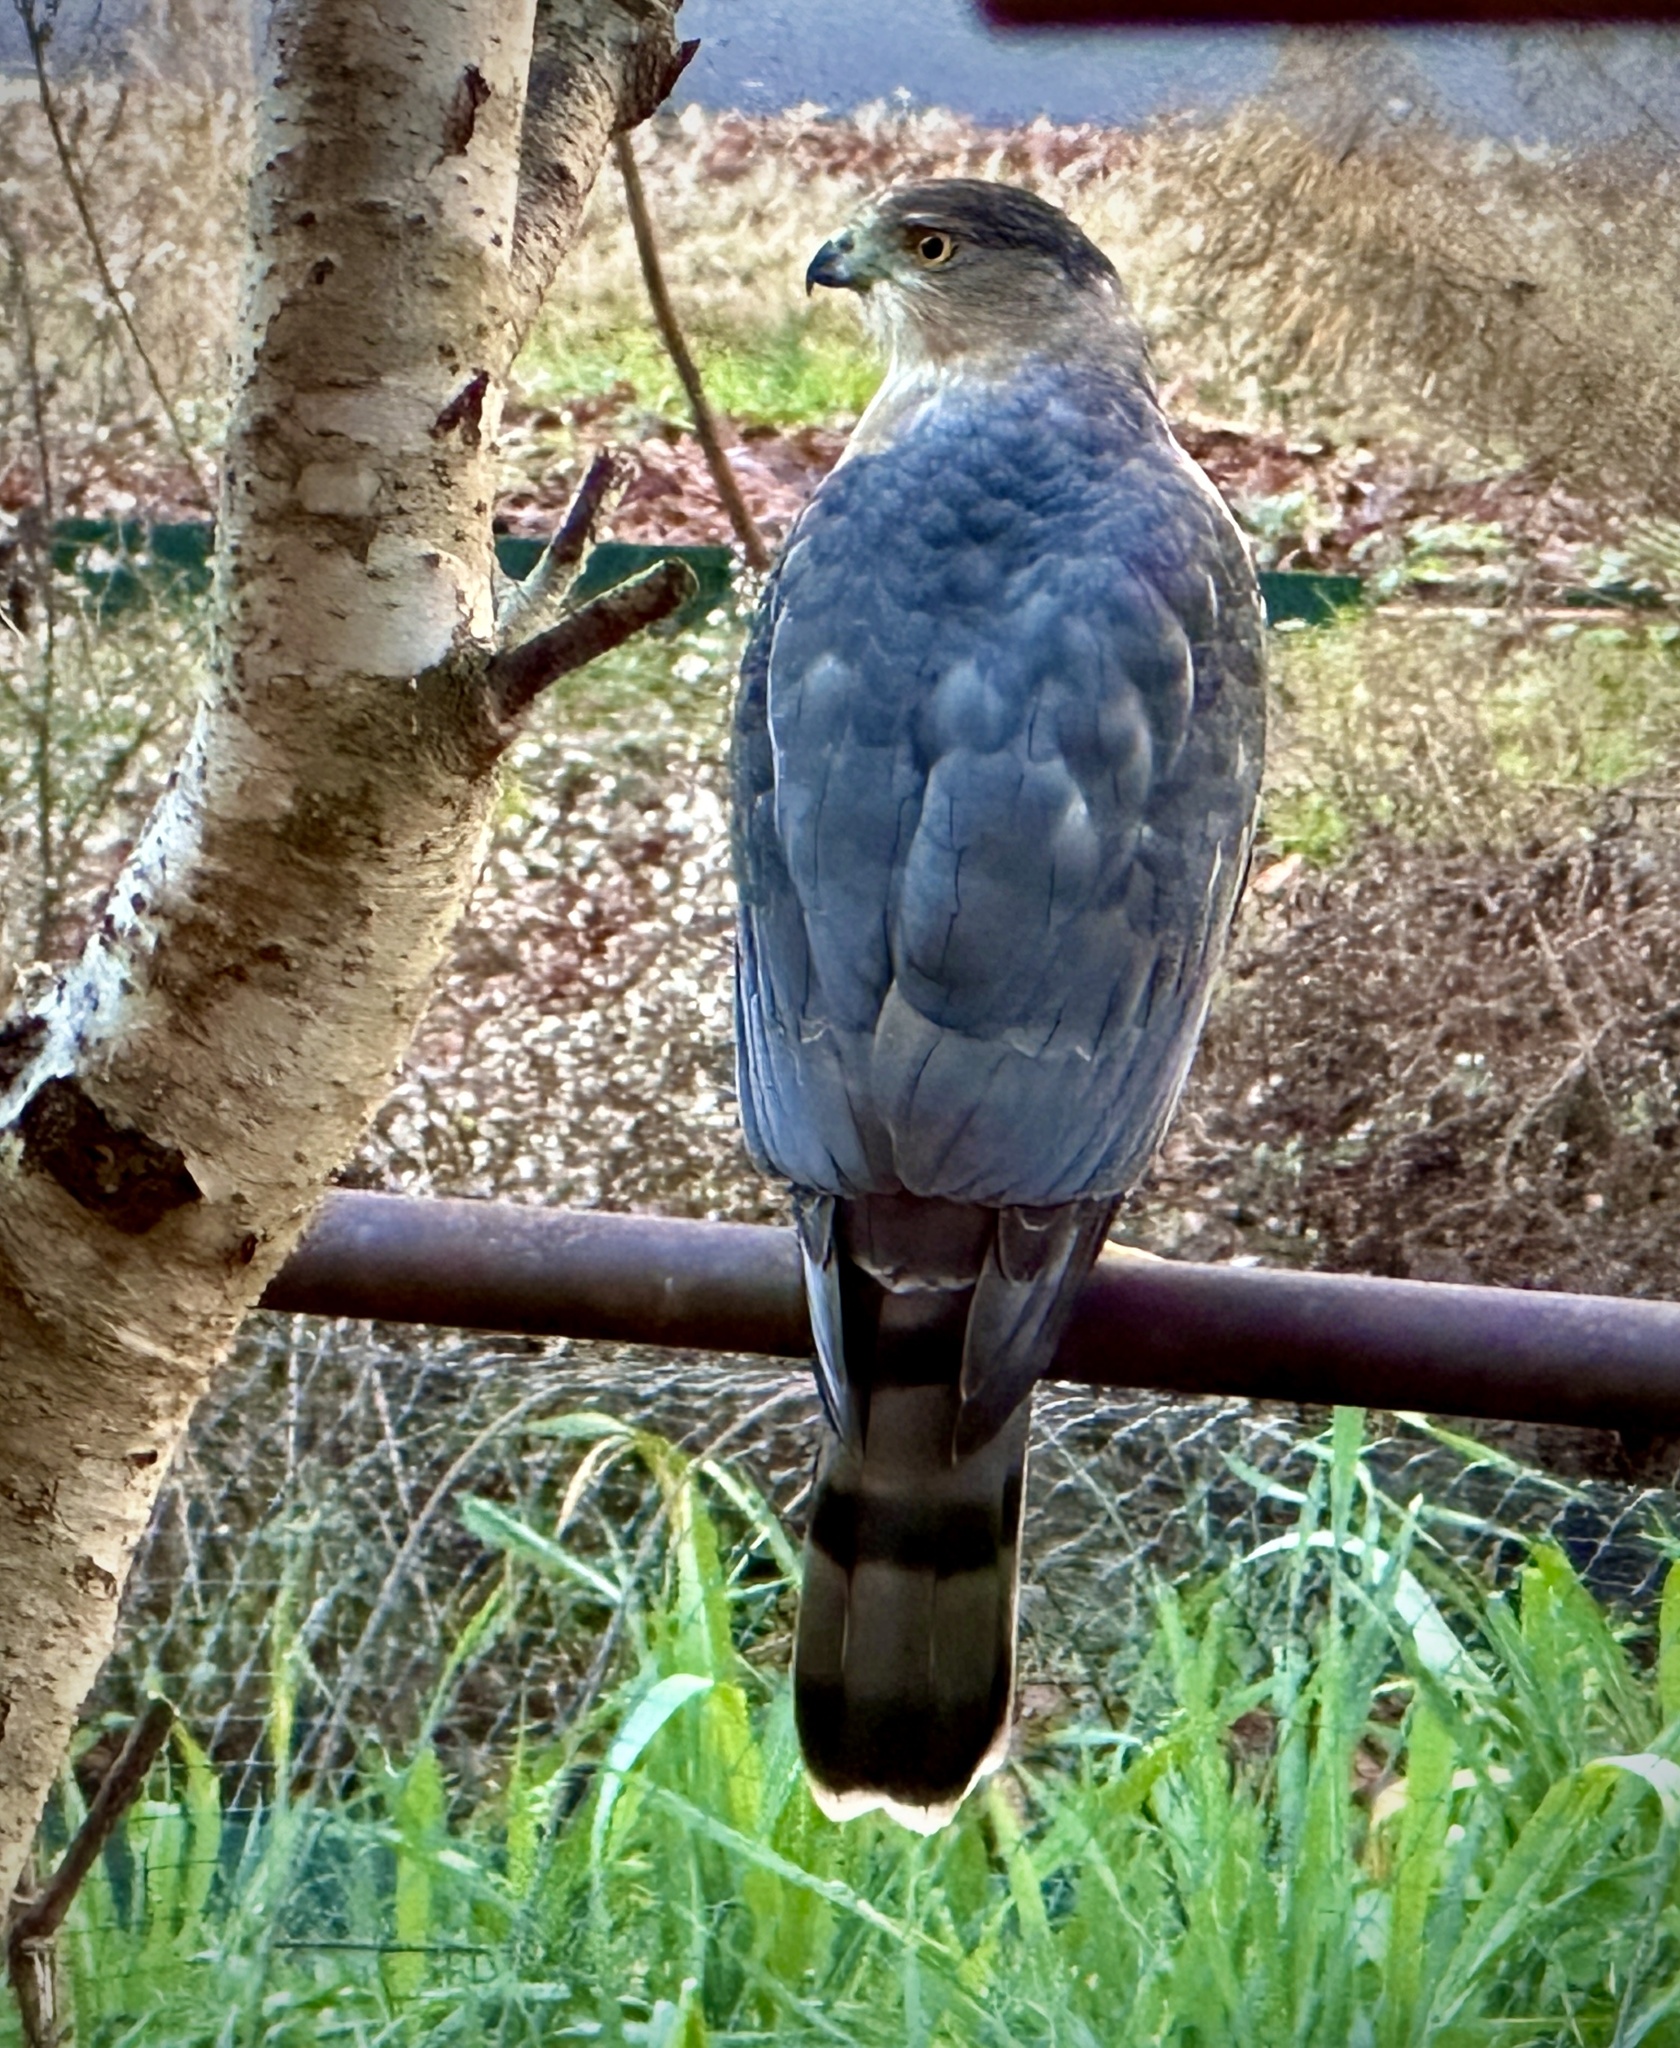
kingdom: Animalia
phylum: Chordata
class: Aves
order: Accipitriformes
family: Accipitridae
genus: Accipiter
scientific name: Accipiter cooperii
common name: Cooper's hawk
